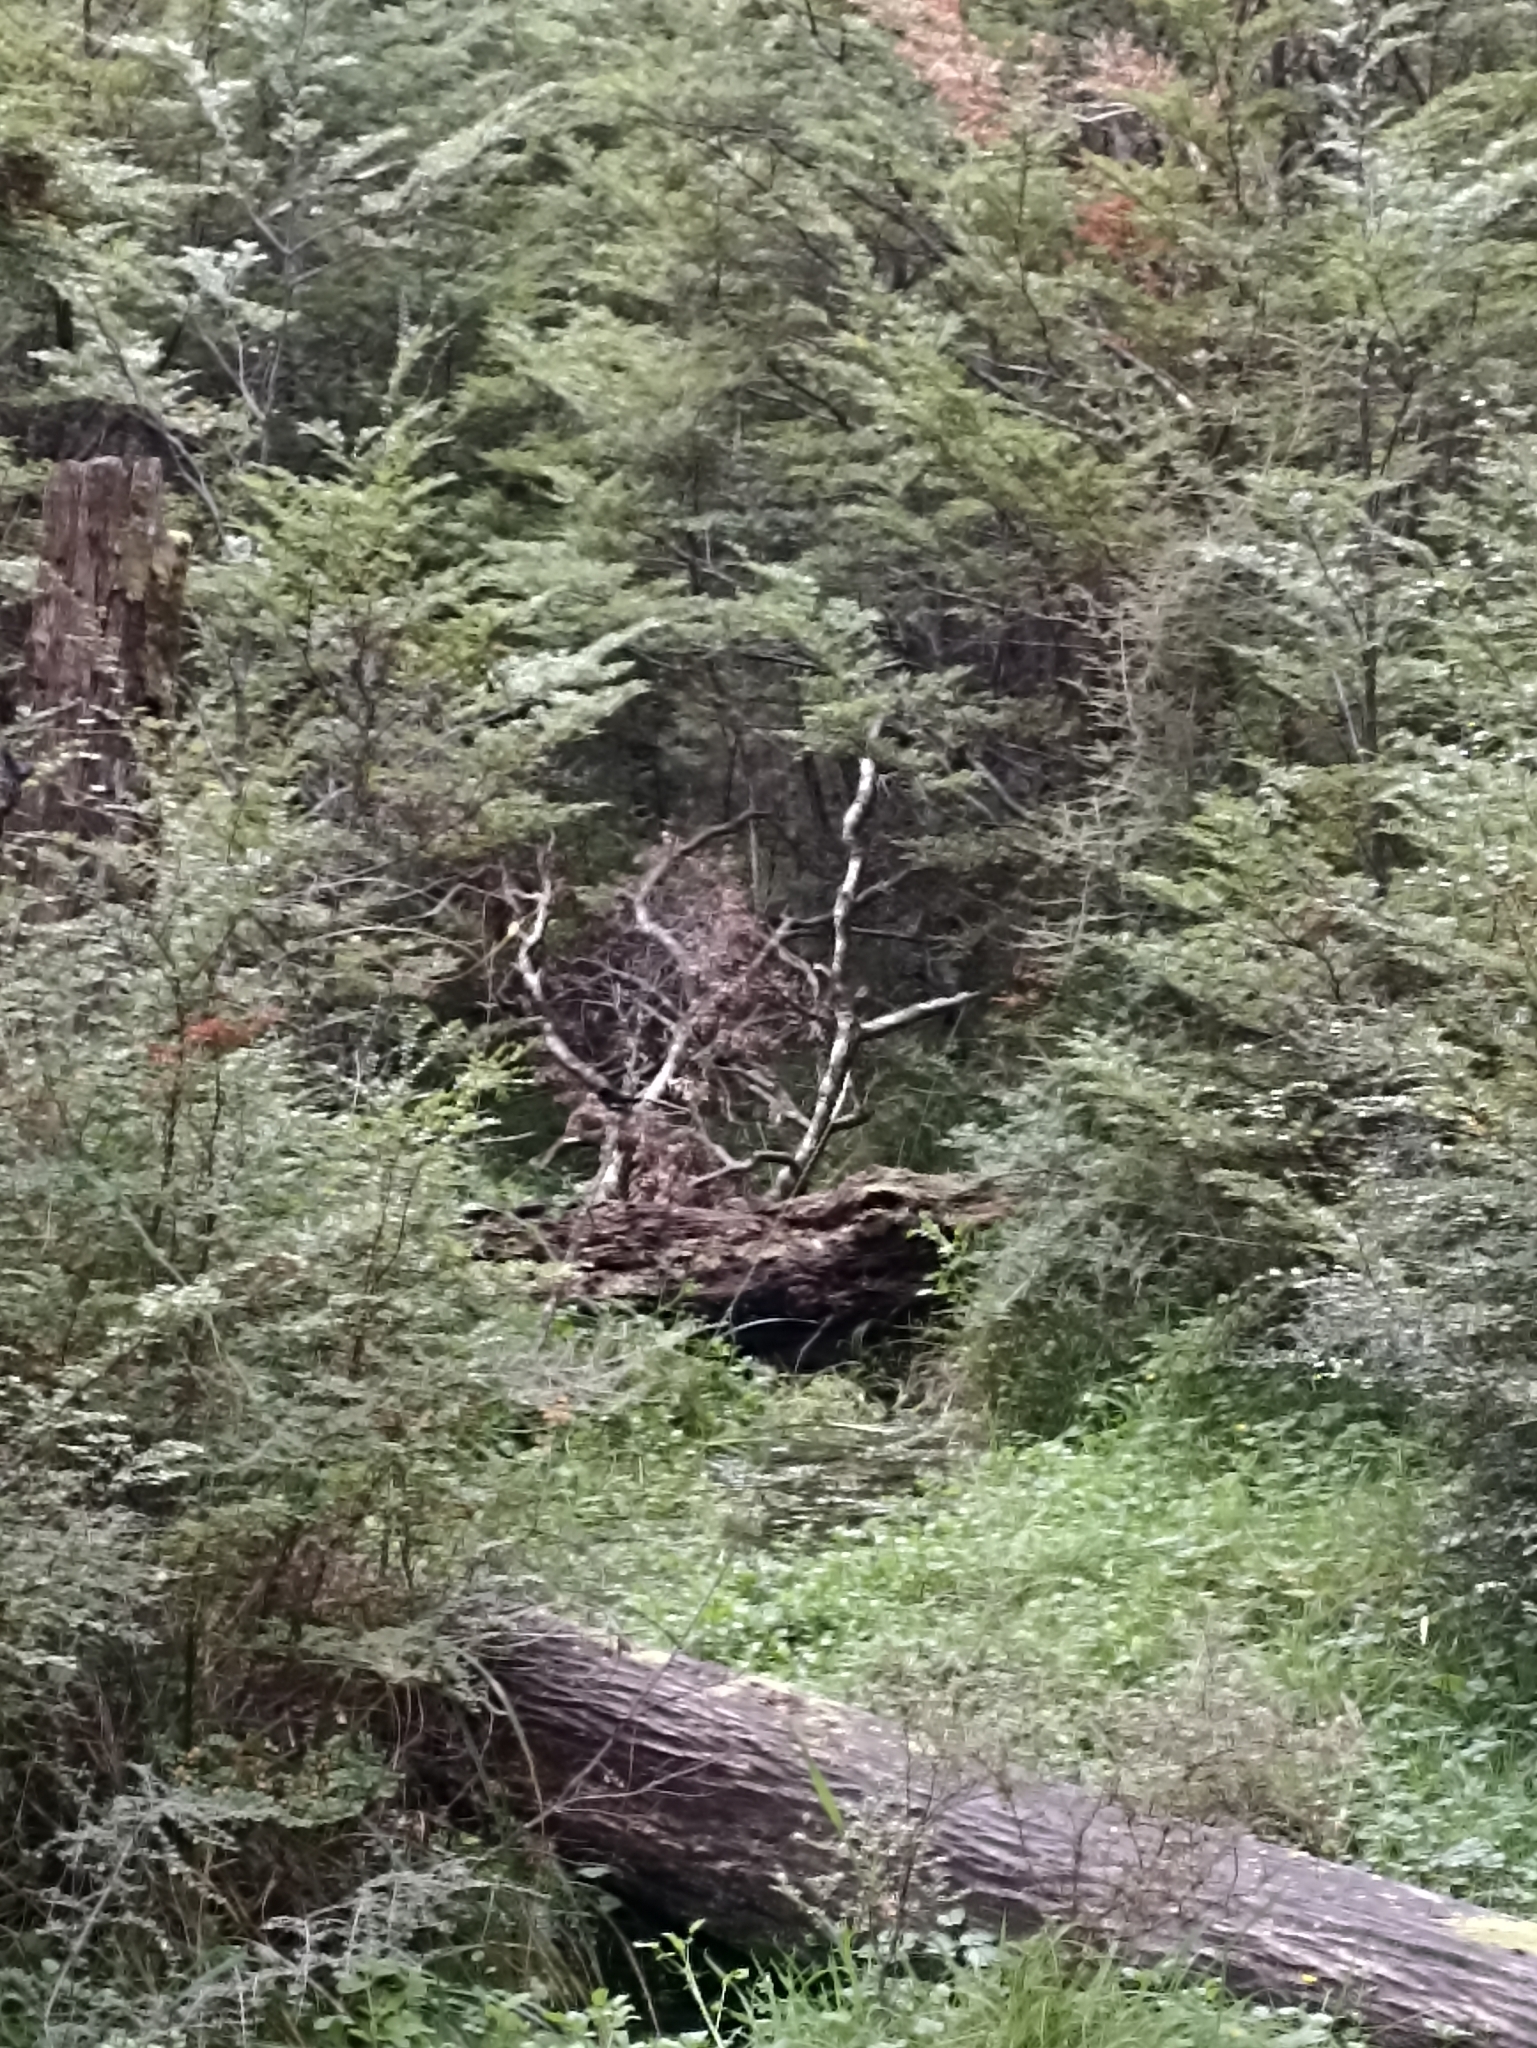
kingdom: Animalia
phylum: Chordata
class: Aves
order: Passeriformes
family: Petroicidae
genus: Petroica
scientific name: Petroica macrocephala
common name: Tomtit
